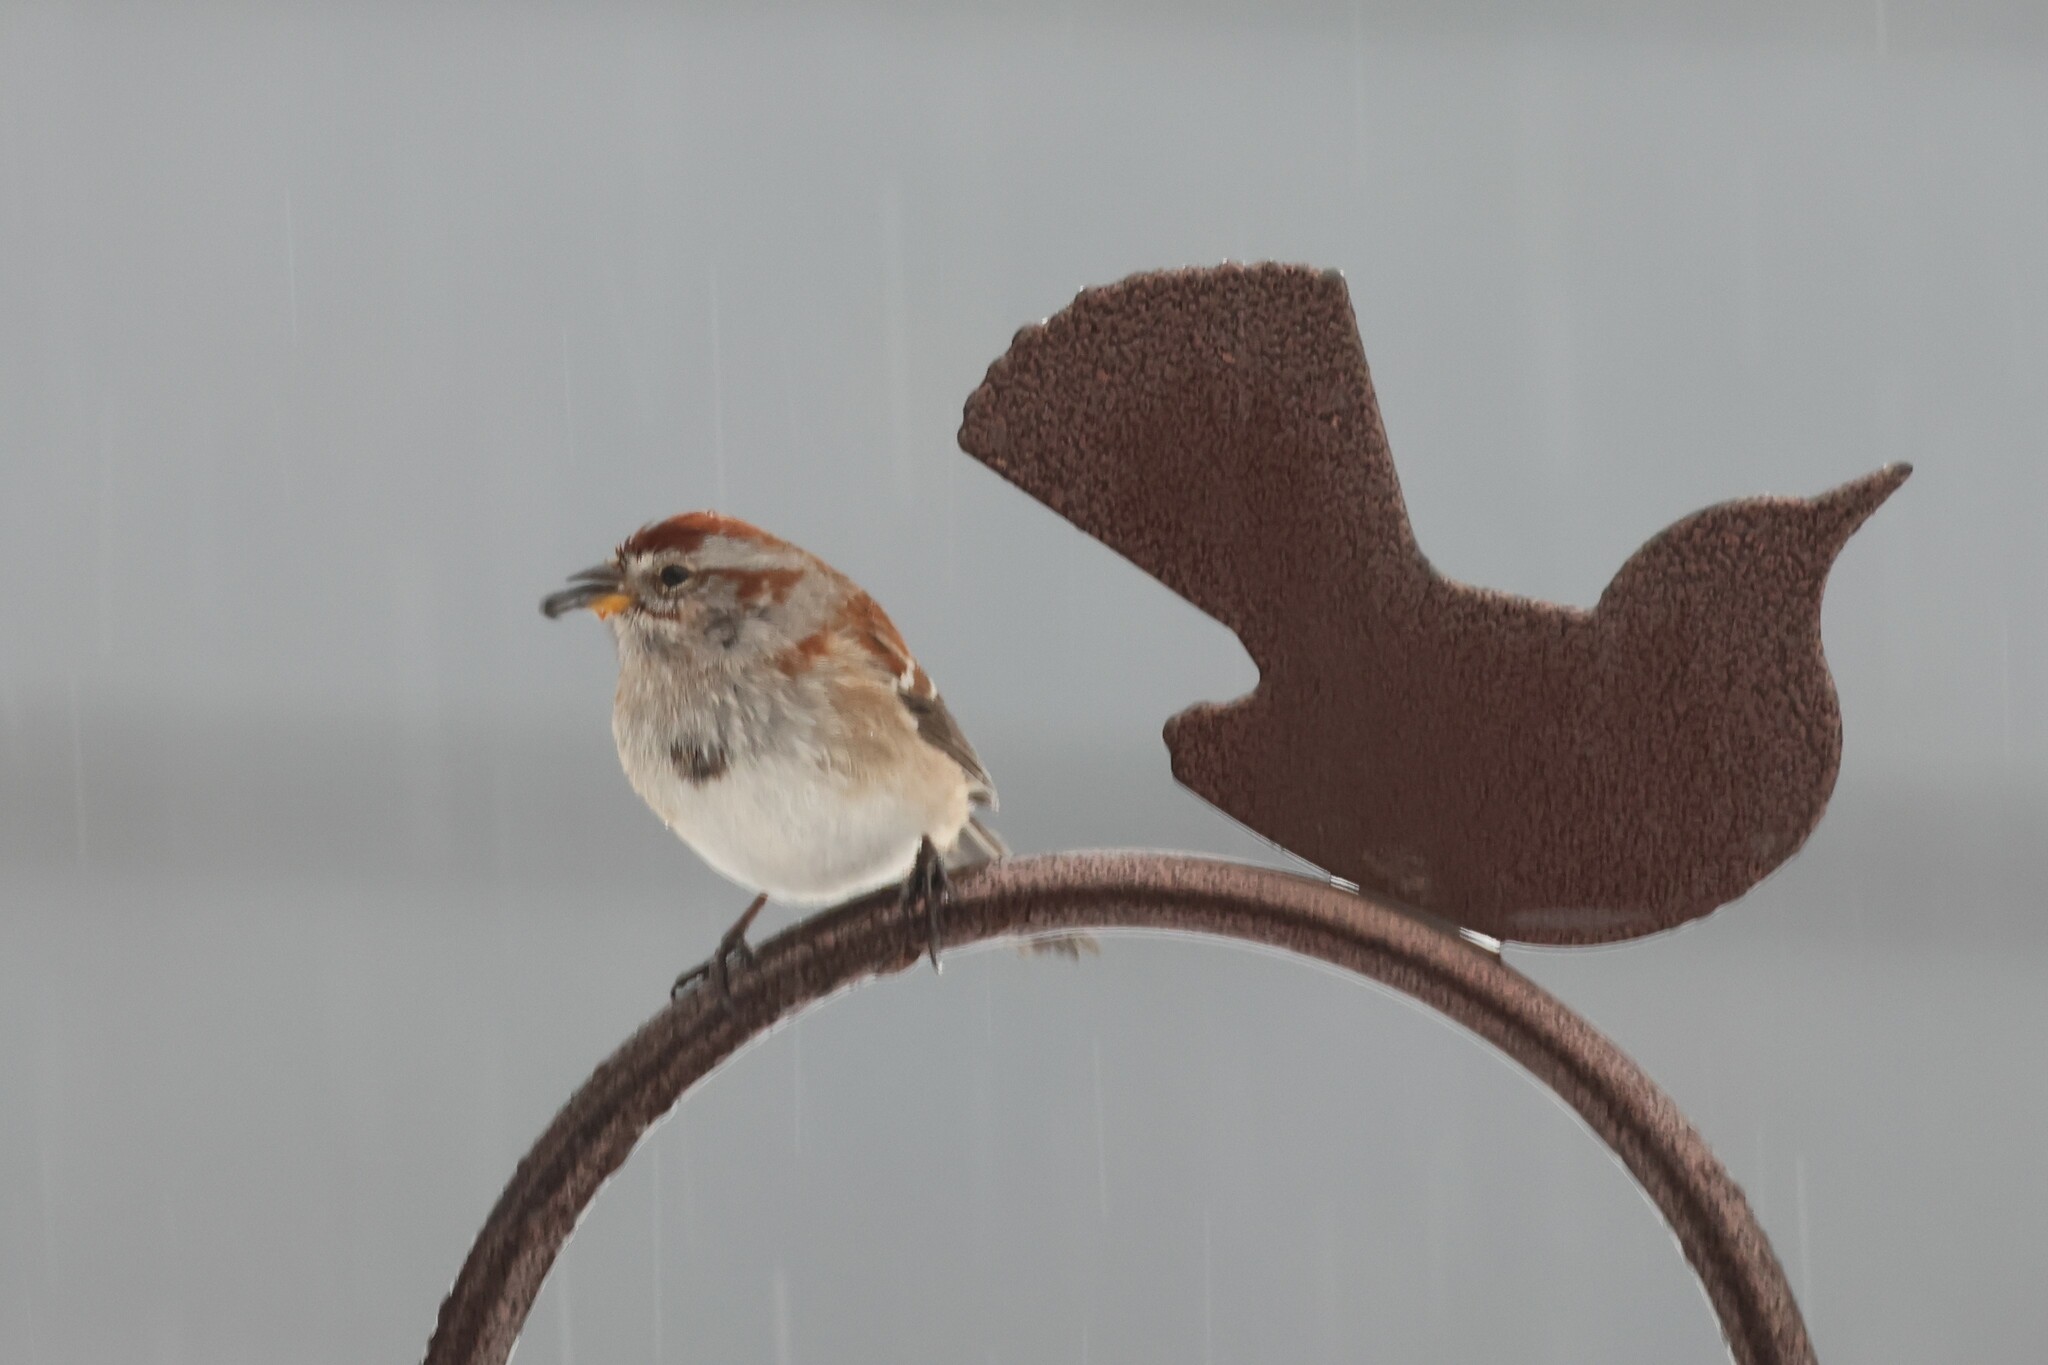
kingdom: Animalia
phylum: Chordata
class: Aves
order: Passeriformes
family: Passerellidae
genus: Spizelloides
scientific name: Spizelloides arborea
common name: American tree sparrow
